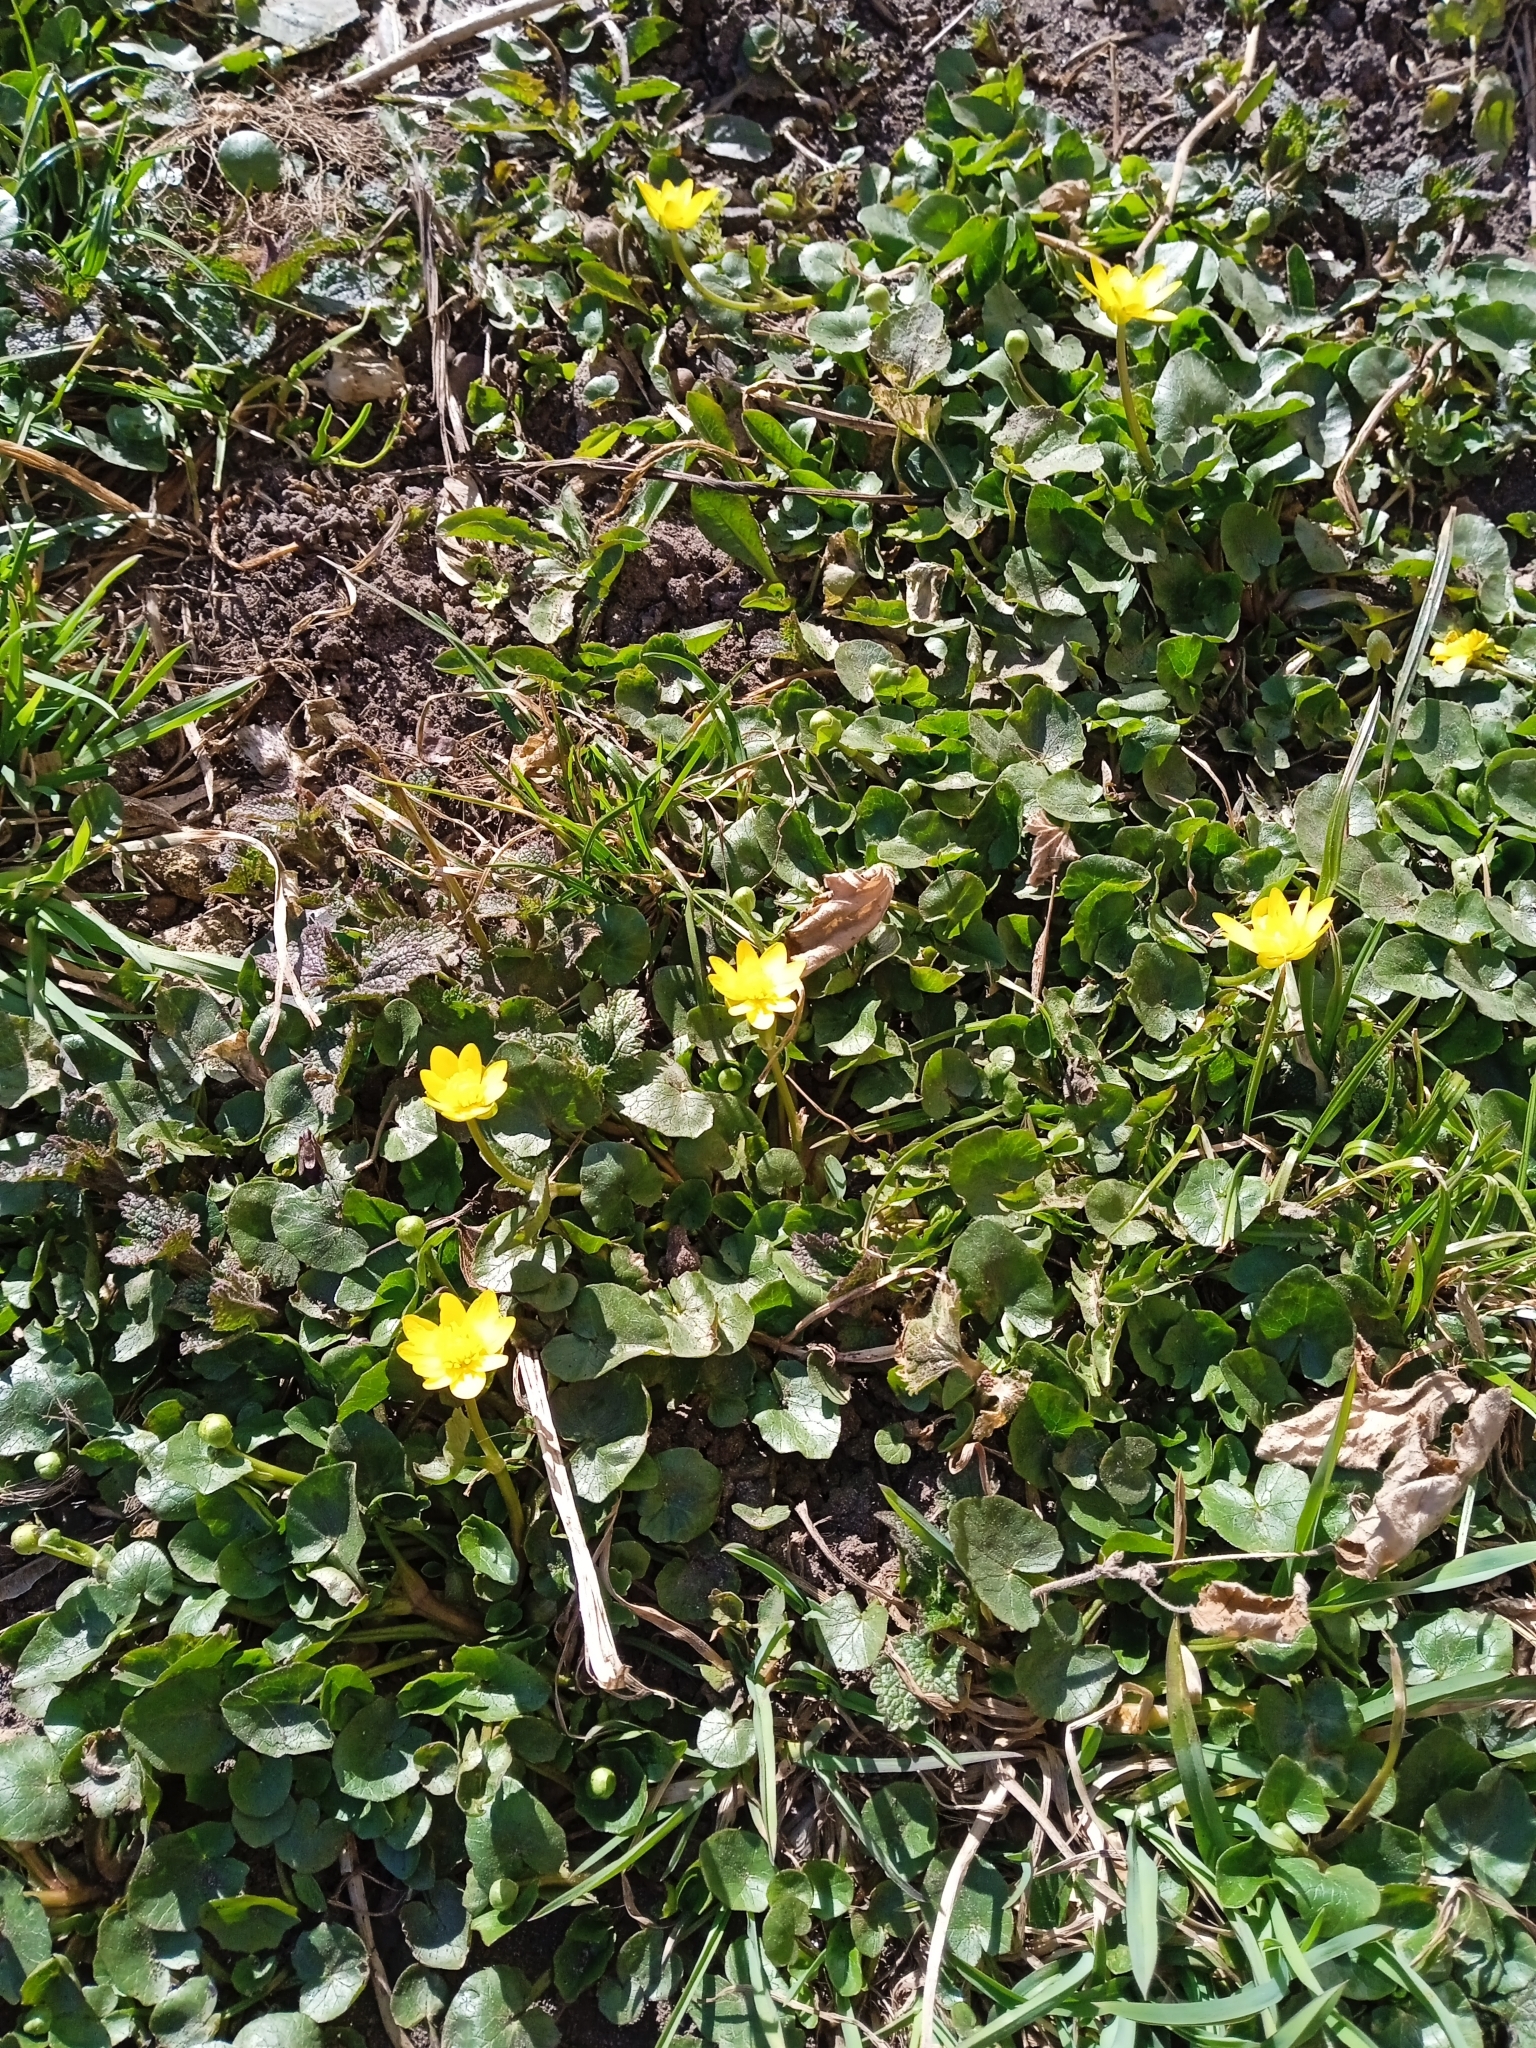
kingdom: Plantae
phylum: Tracheophyta
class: Magnoliopsida
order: Ranunculales
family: Ranunculaceae
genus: Ficaria
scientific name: Ficaria verna
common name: Lesser celandine
